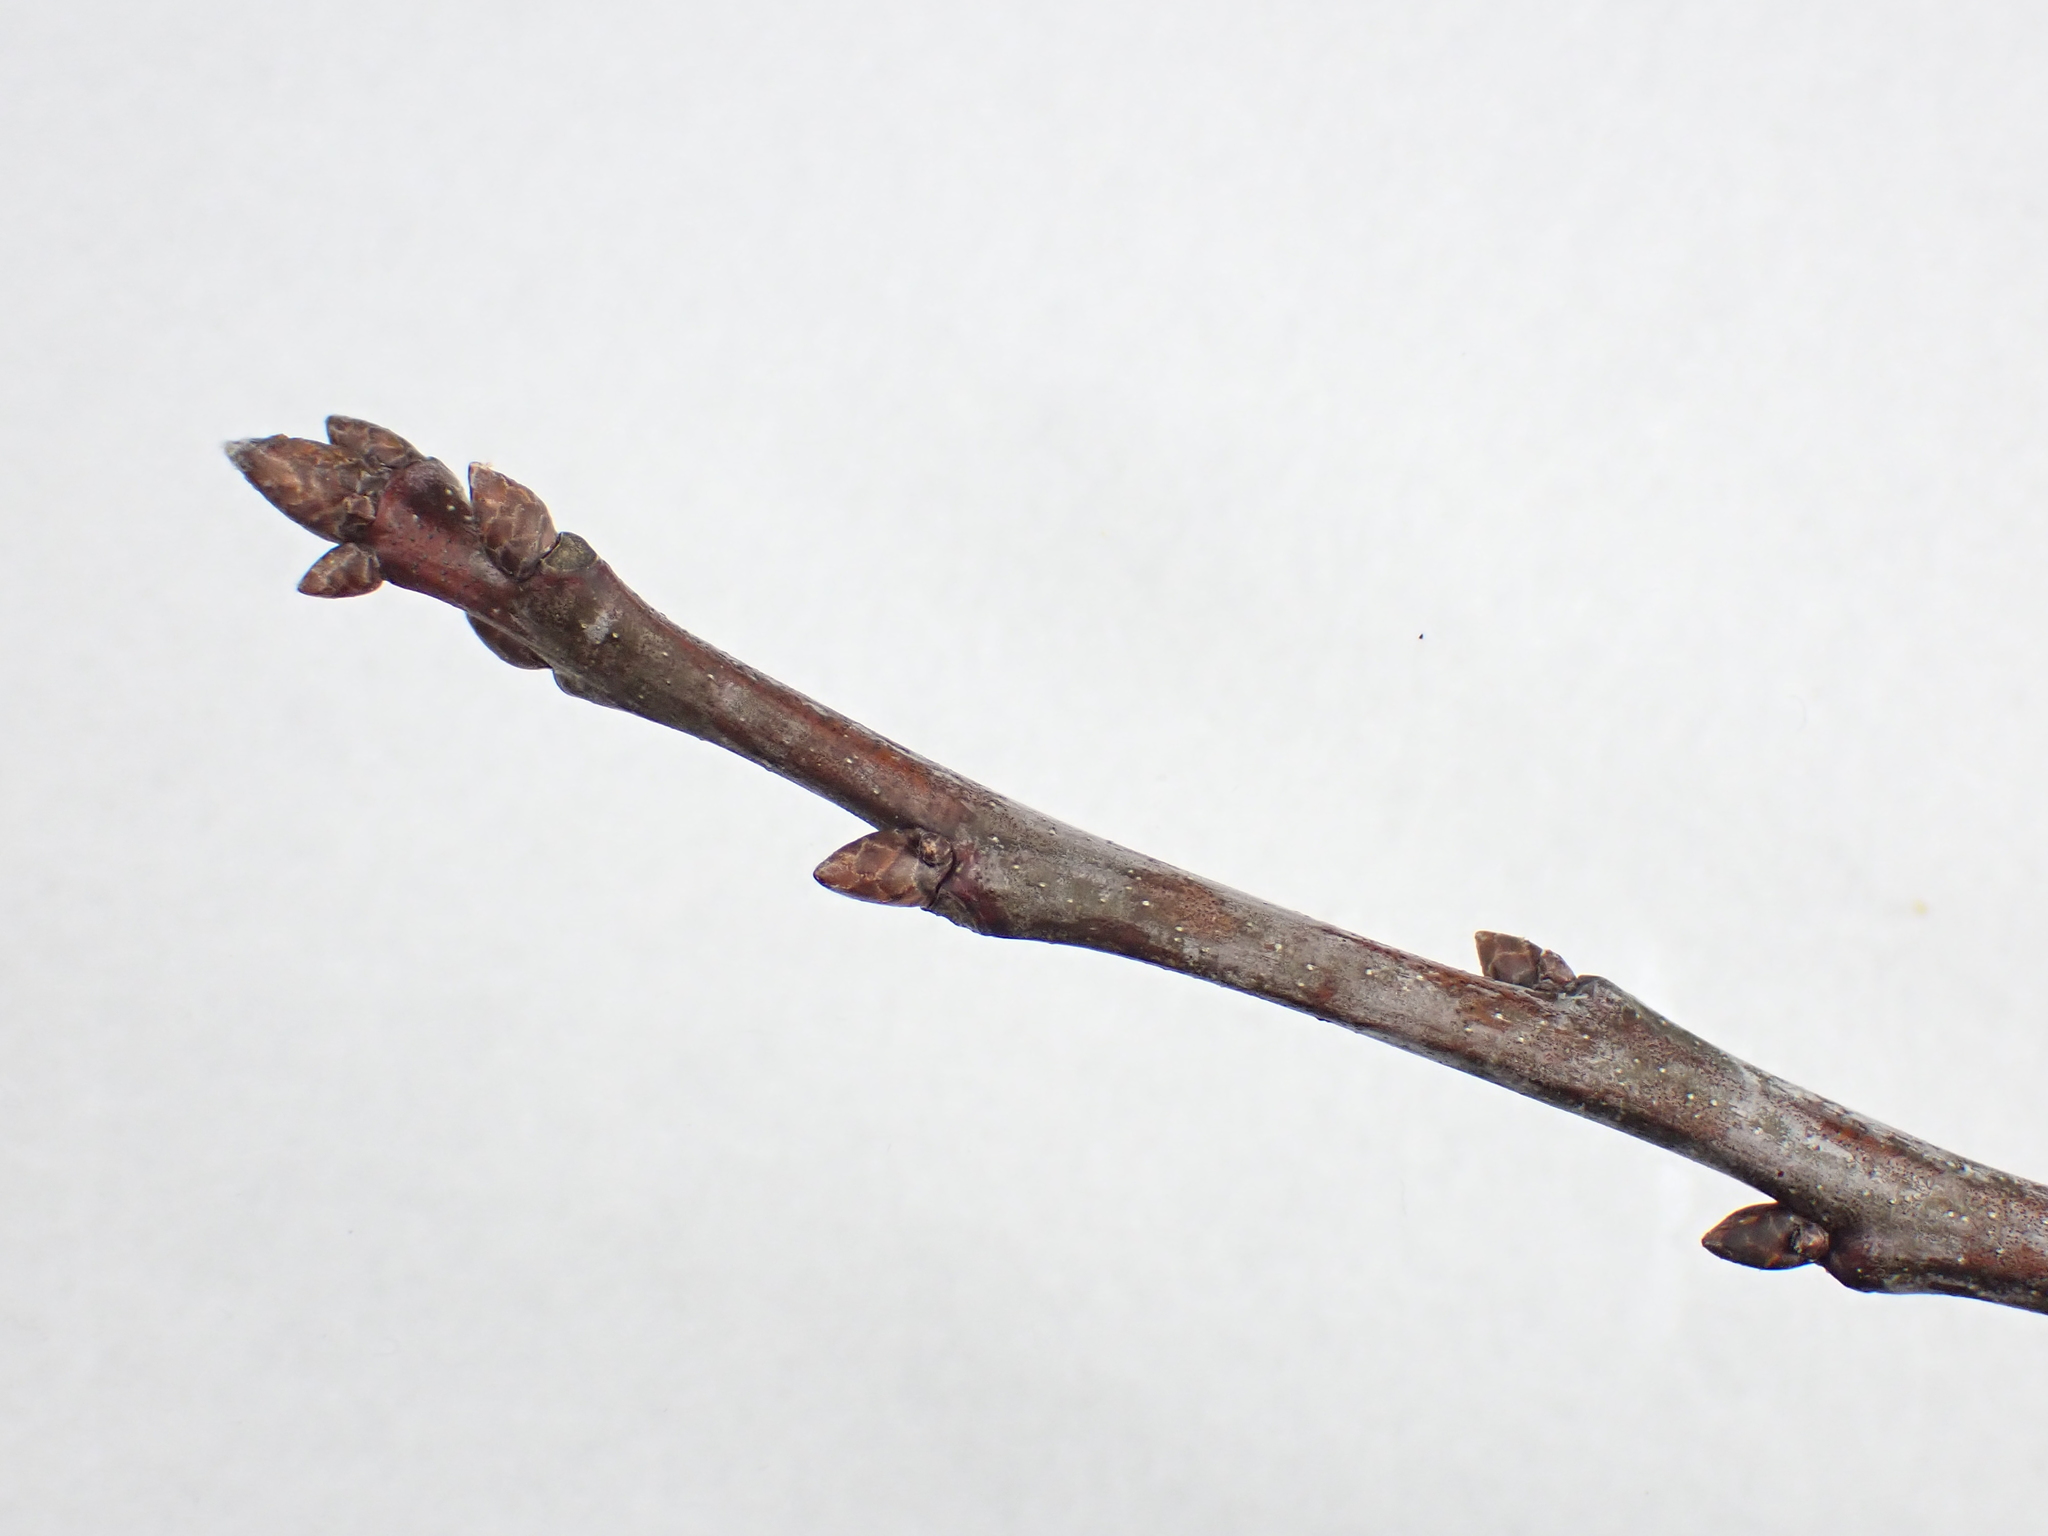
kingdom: Plantae
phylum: Tracheophyta
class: Magnoliopsida
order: Fagales
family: Fagaceae
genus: Quercus
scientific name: Quercus rubra
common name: Red oak
